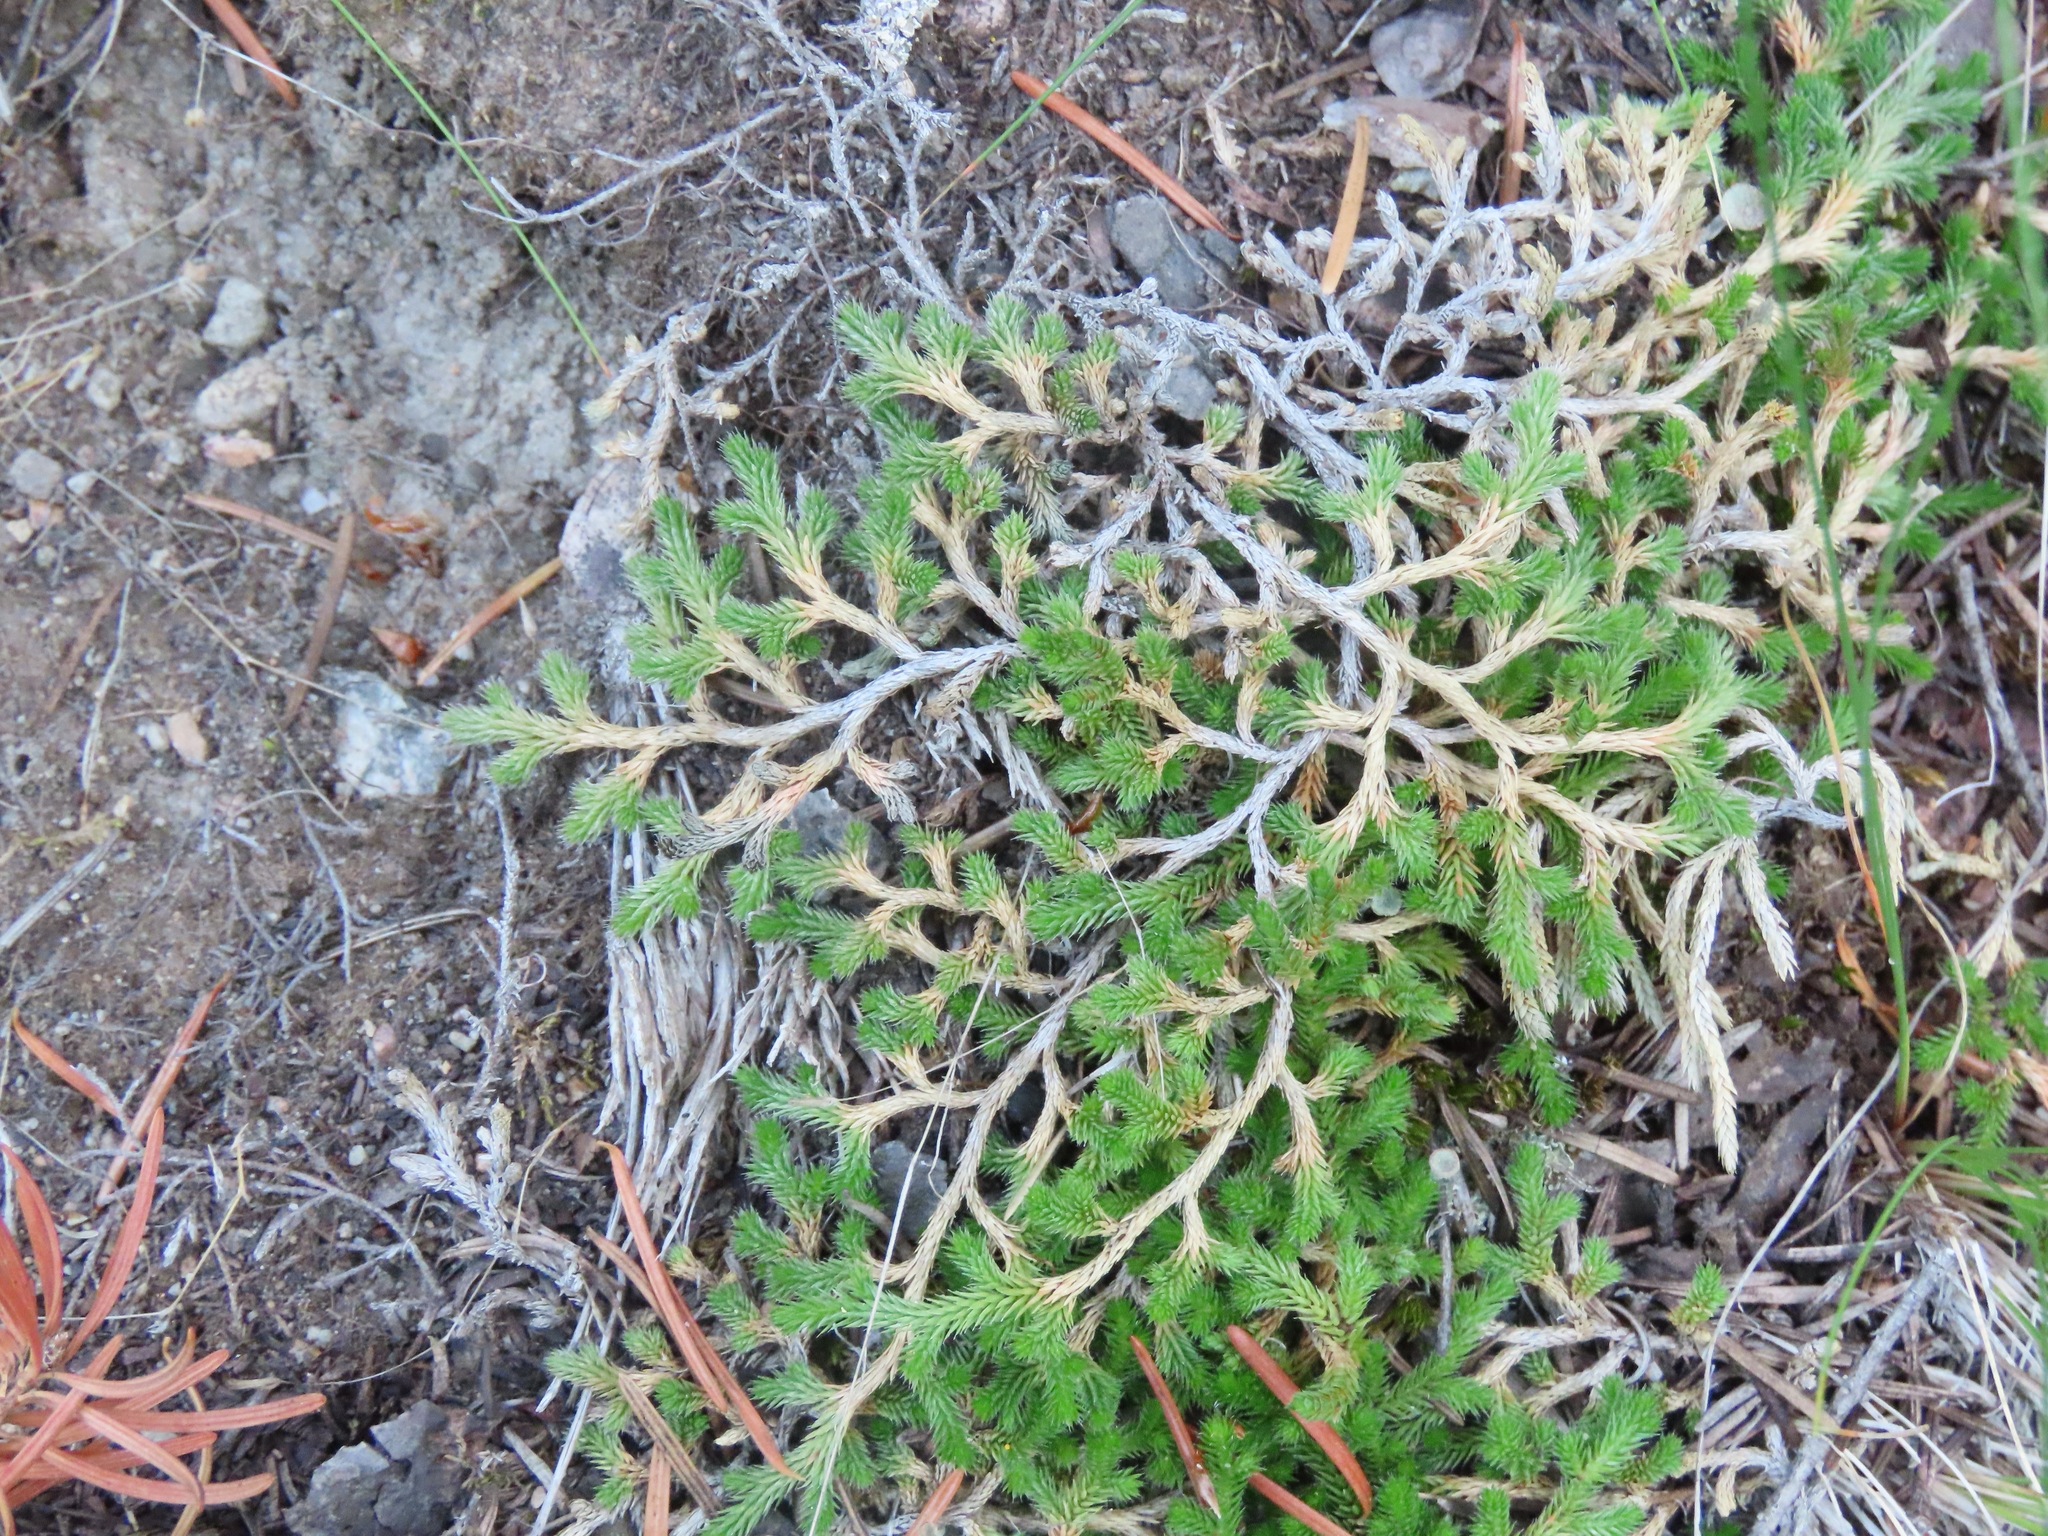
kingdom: Plantae
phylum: Tracheophyta
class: Lycopodiopsida
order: Selaginellales
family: Selaginellaceae
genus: Selaginella
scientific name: Selaginella wallacei
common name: Wallace's selaginella
